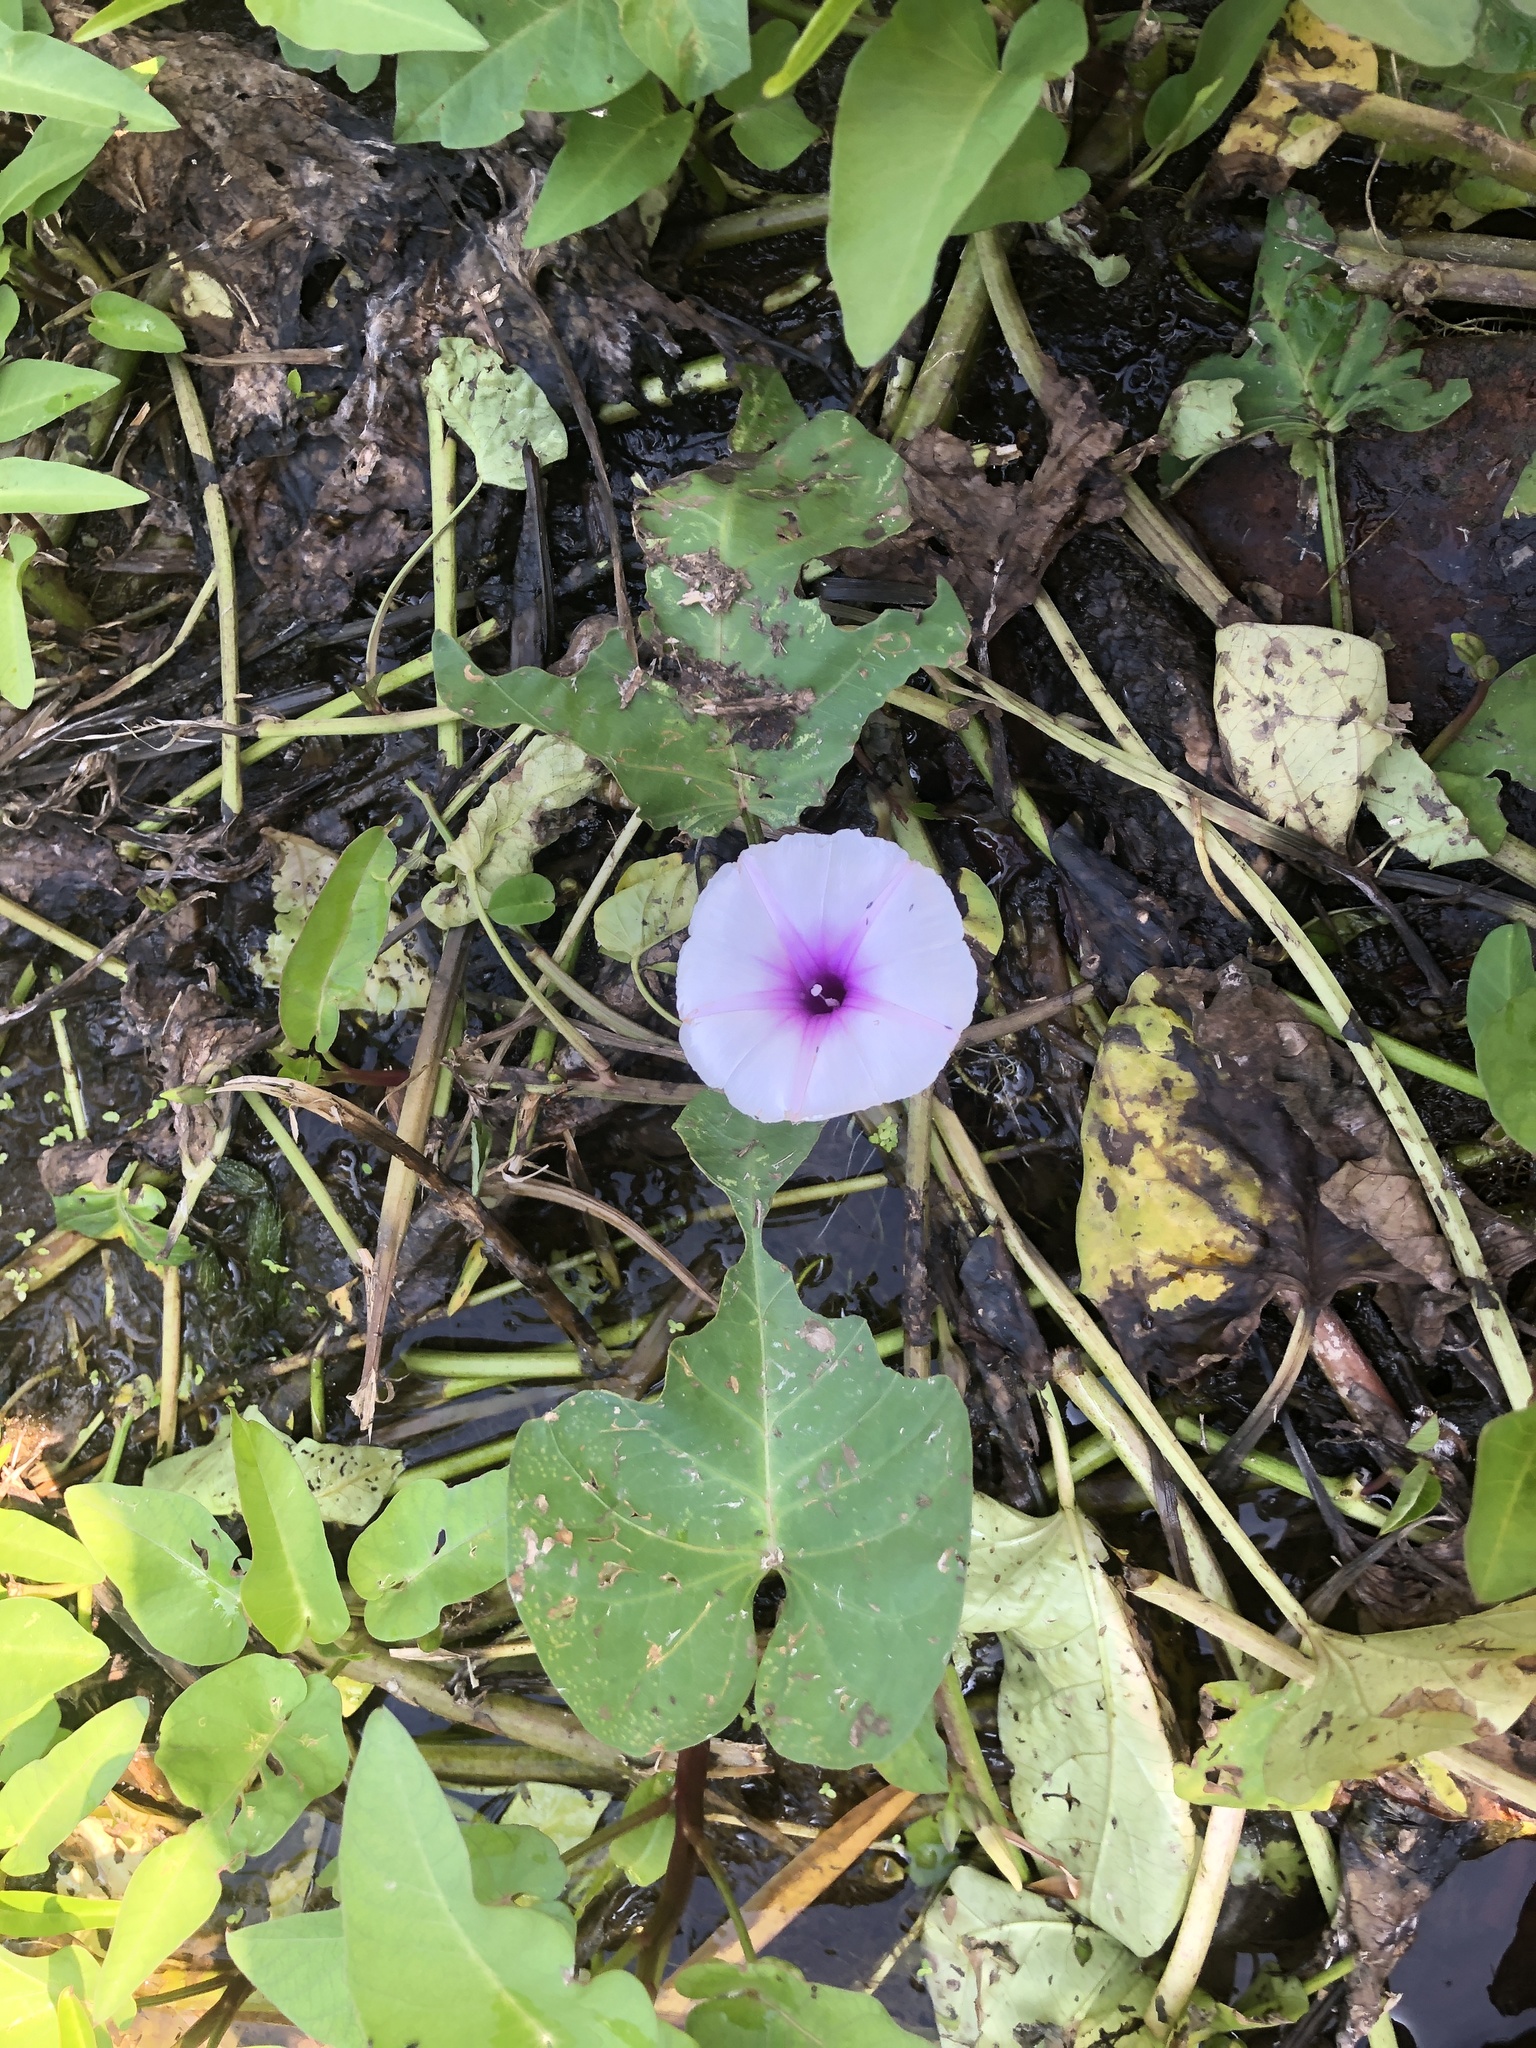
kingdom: Plantae
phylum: Tracheophyta
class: Magnoliopsida
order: Solanales
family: Convolvulaceae
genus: Ipomoea
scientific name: Ipomoea aquatica
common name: Swamp morning-glory
